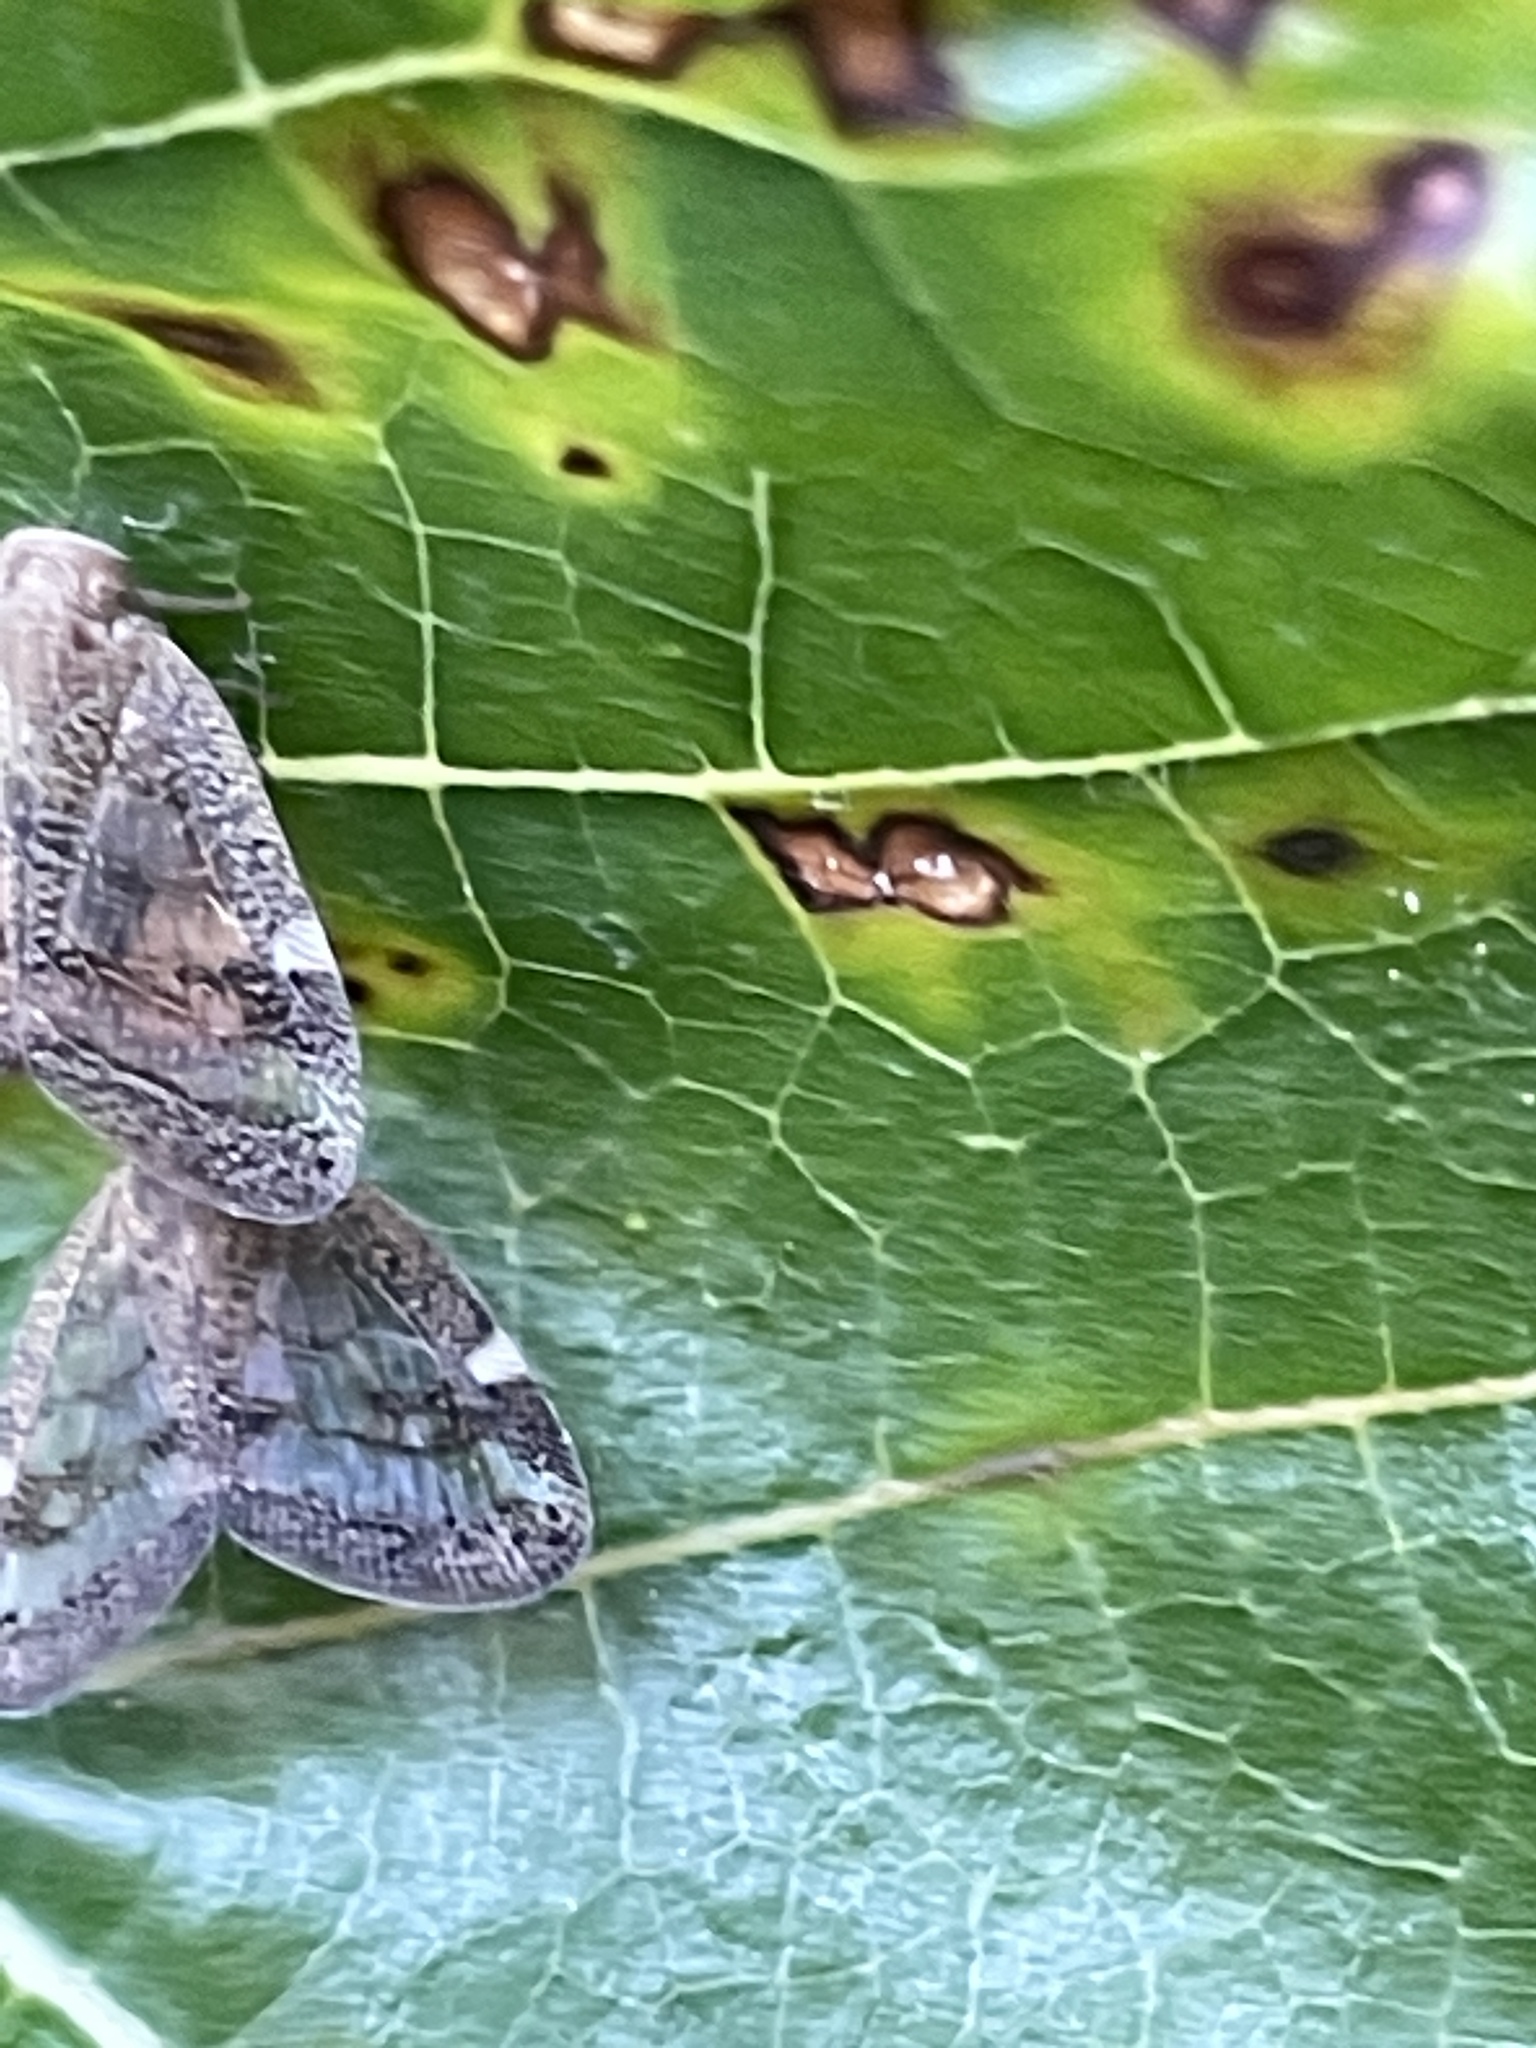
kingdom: Animalia
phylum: Arthropoda
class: Insecta
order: Hemiptera
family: Ricaniidae
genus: Scolypopa
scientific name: Scolypopa australis
